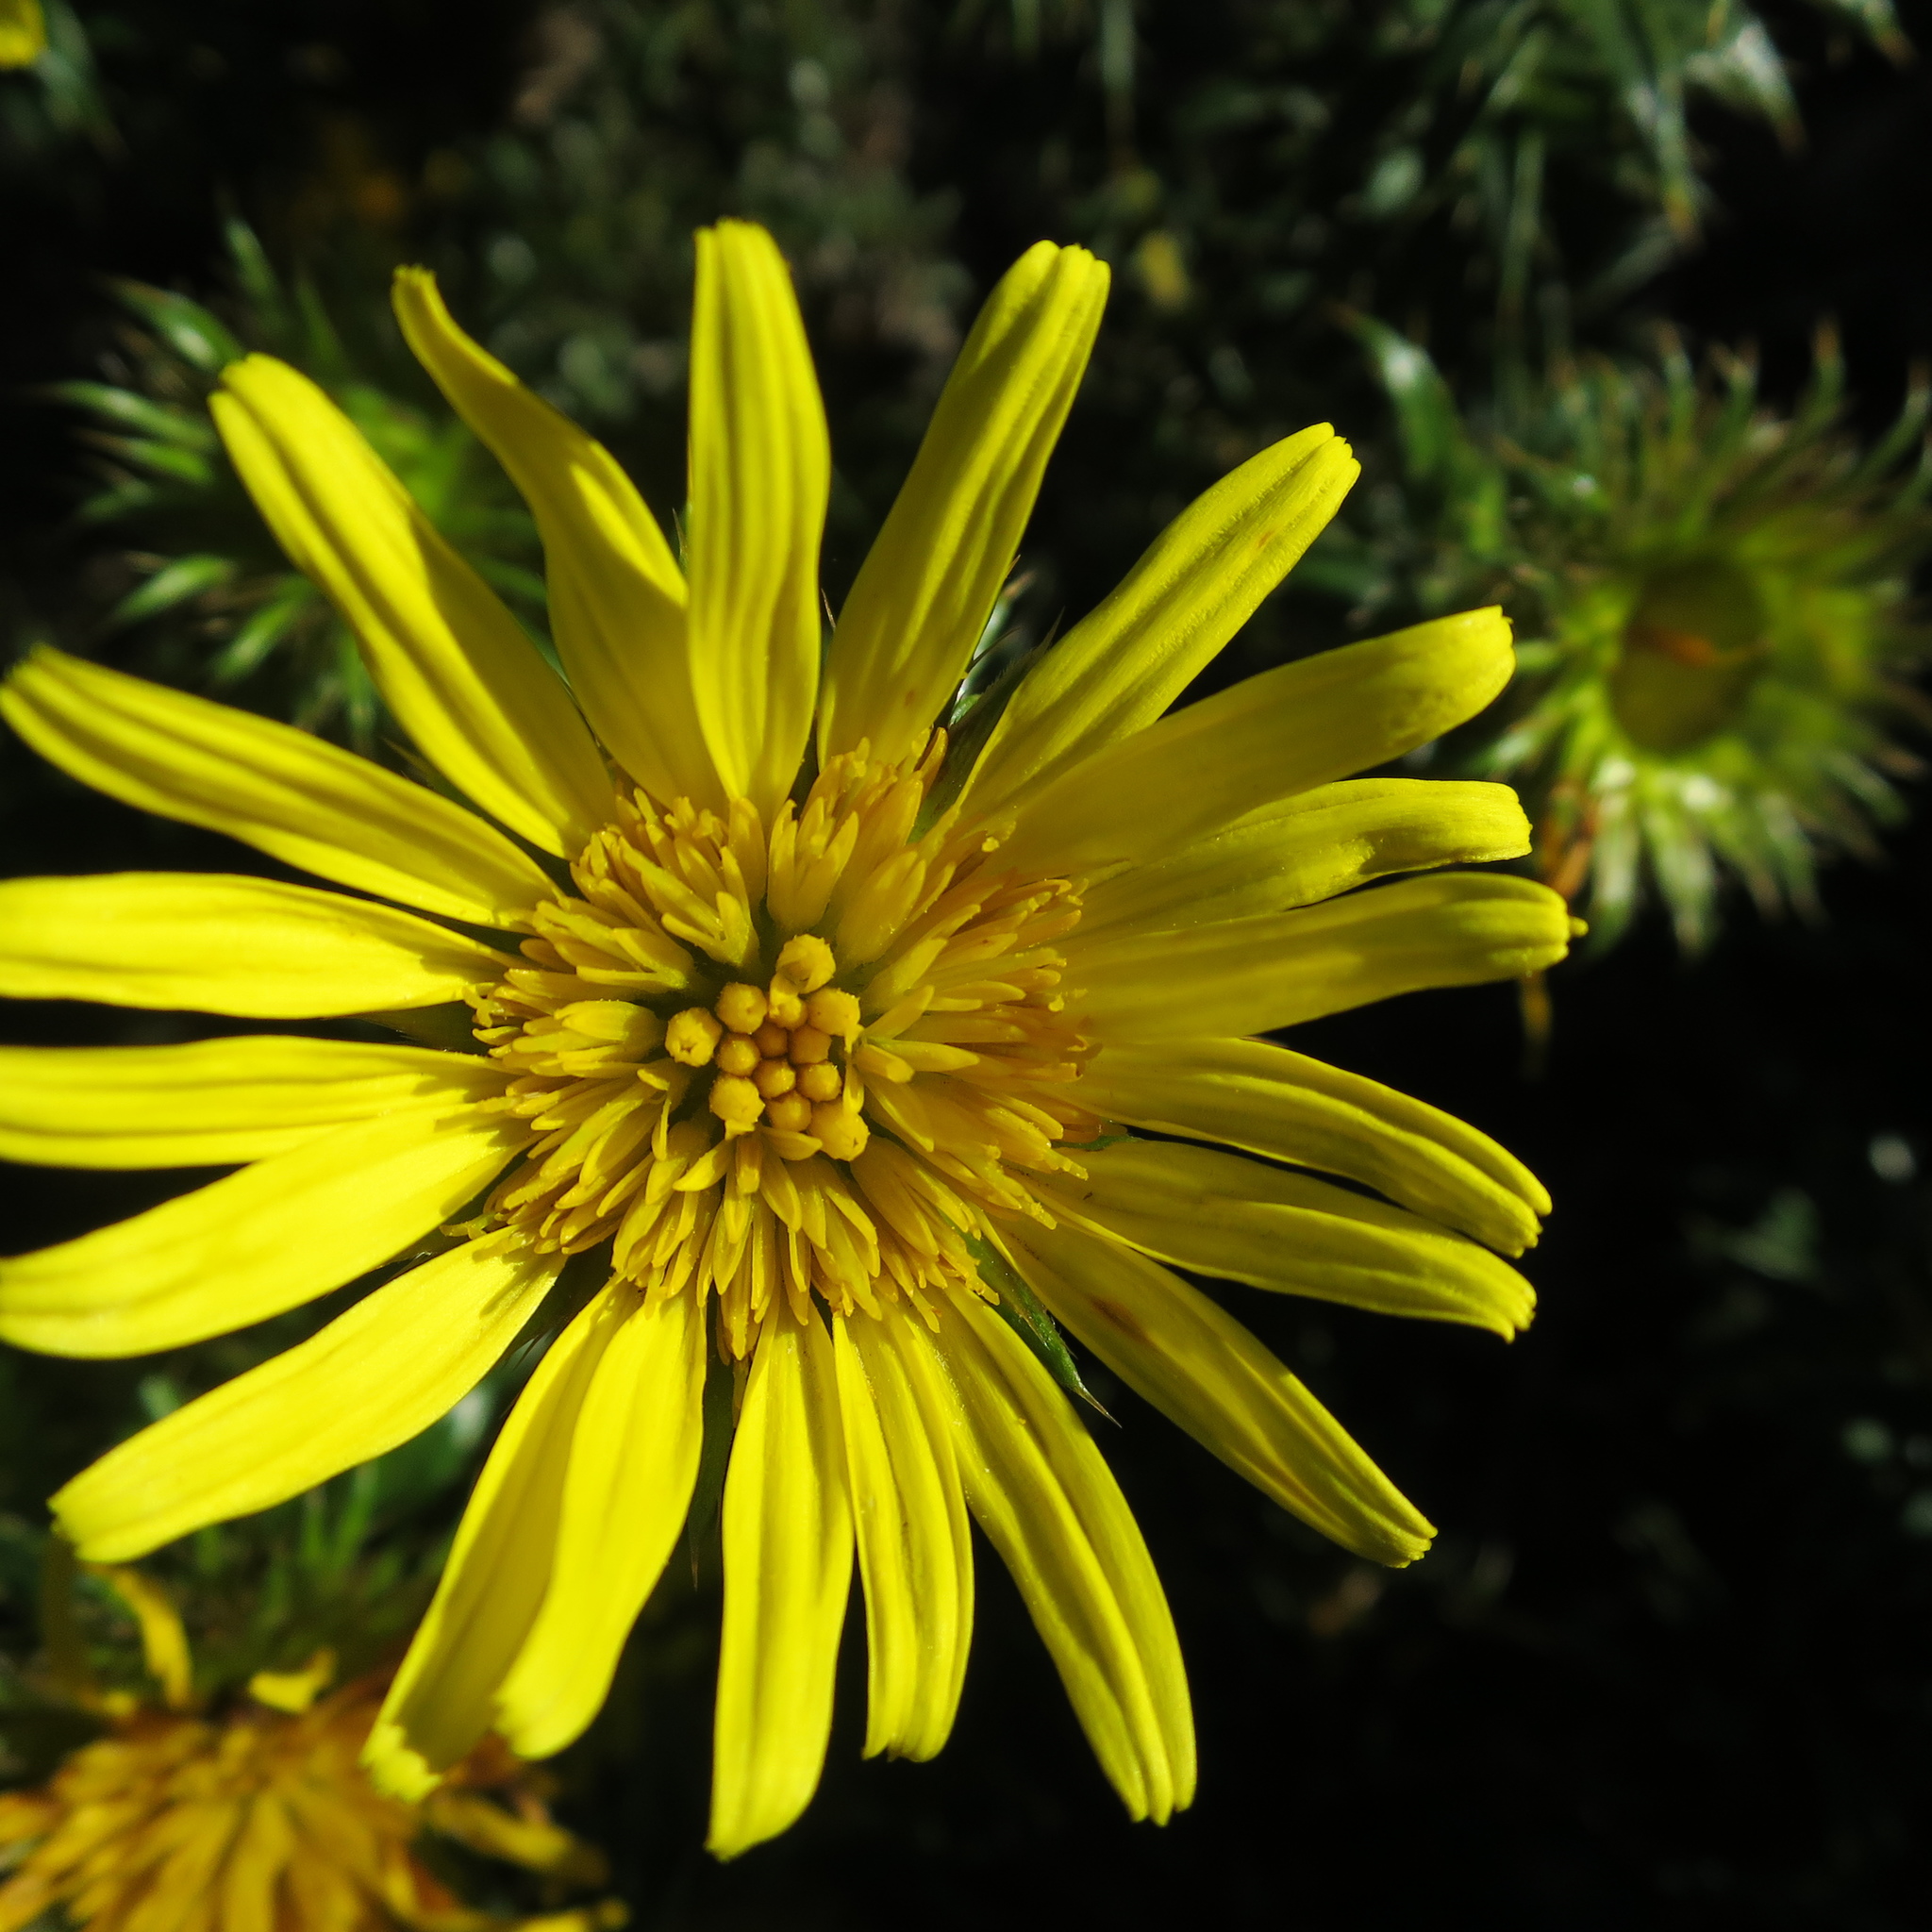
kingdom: Plantae
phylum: Tracheophyta
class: Magnoliopsida
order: Asterales
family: Asteraceae
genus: Cullumia
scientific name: Cullumia carlinoides
